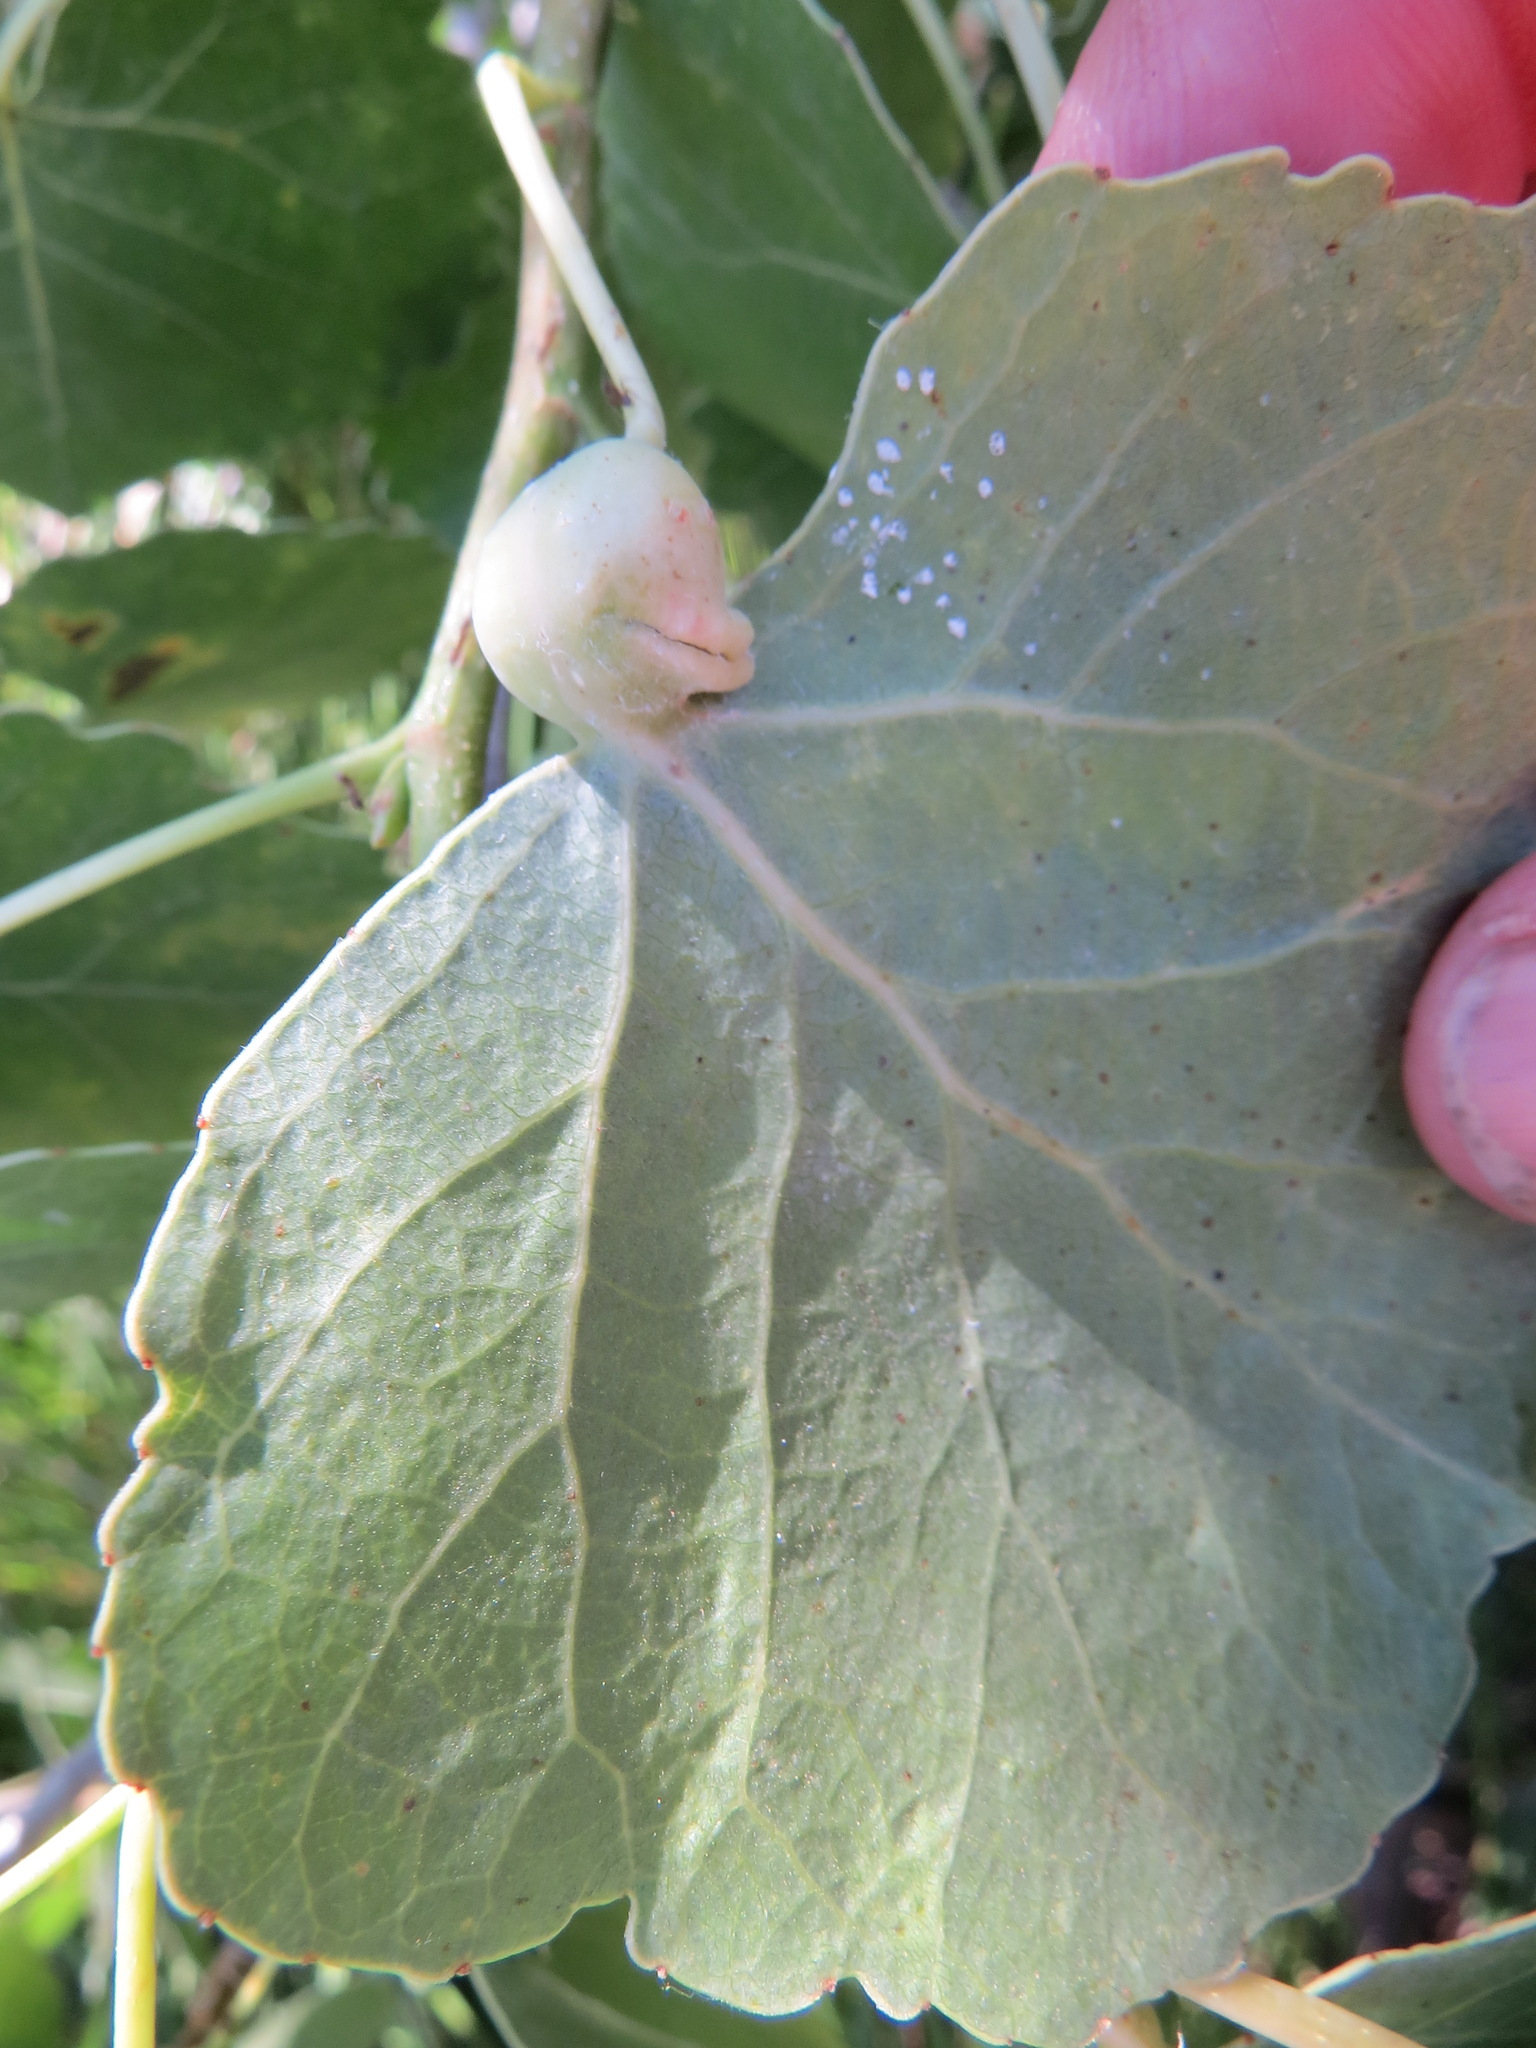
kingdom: Animalia
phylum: Arthropoda
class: Insecta
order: Hemiptera
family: Aphididae
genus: Pemphigus
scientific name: Pemphigus obesinymphae
